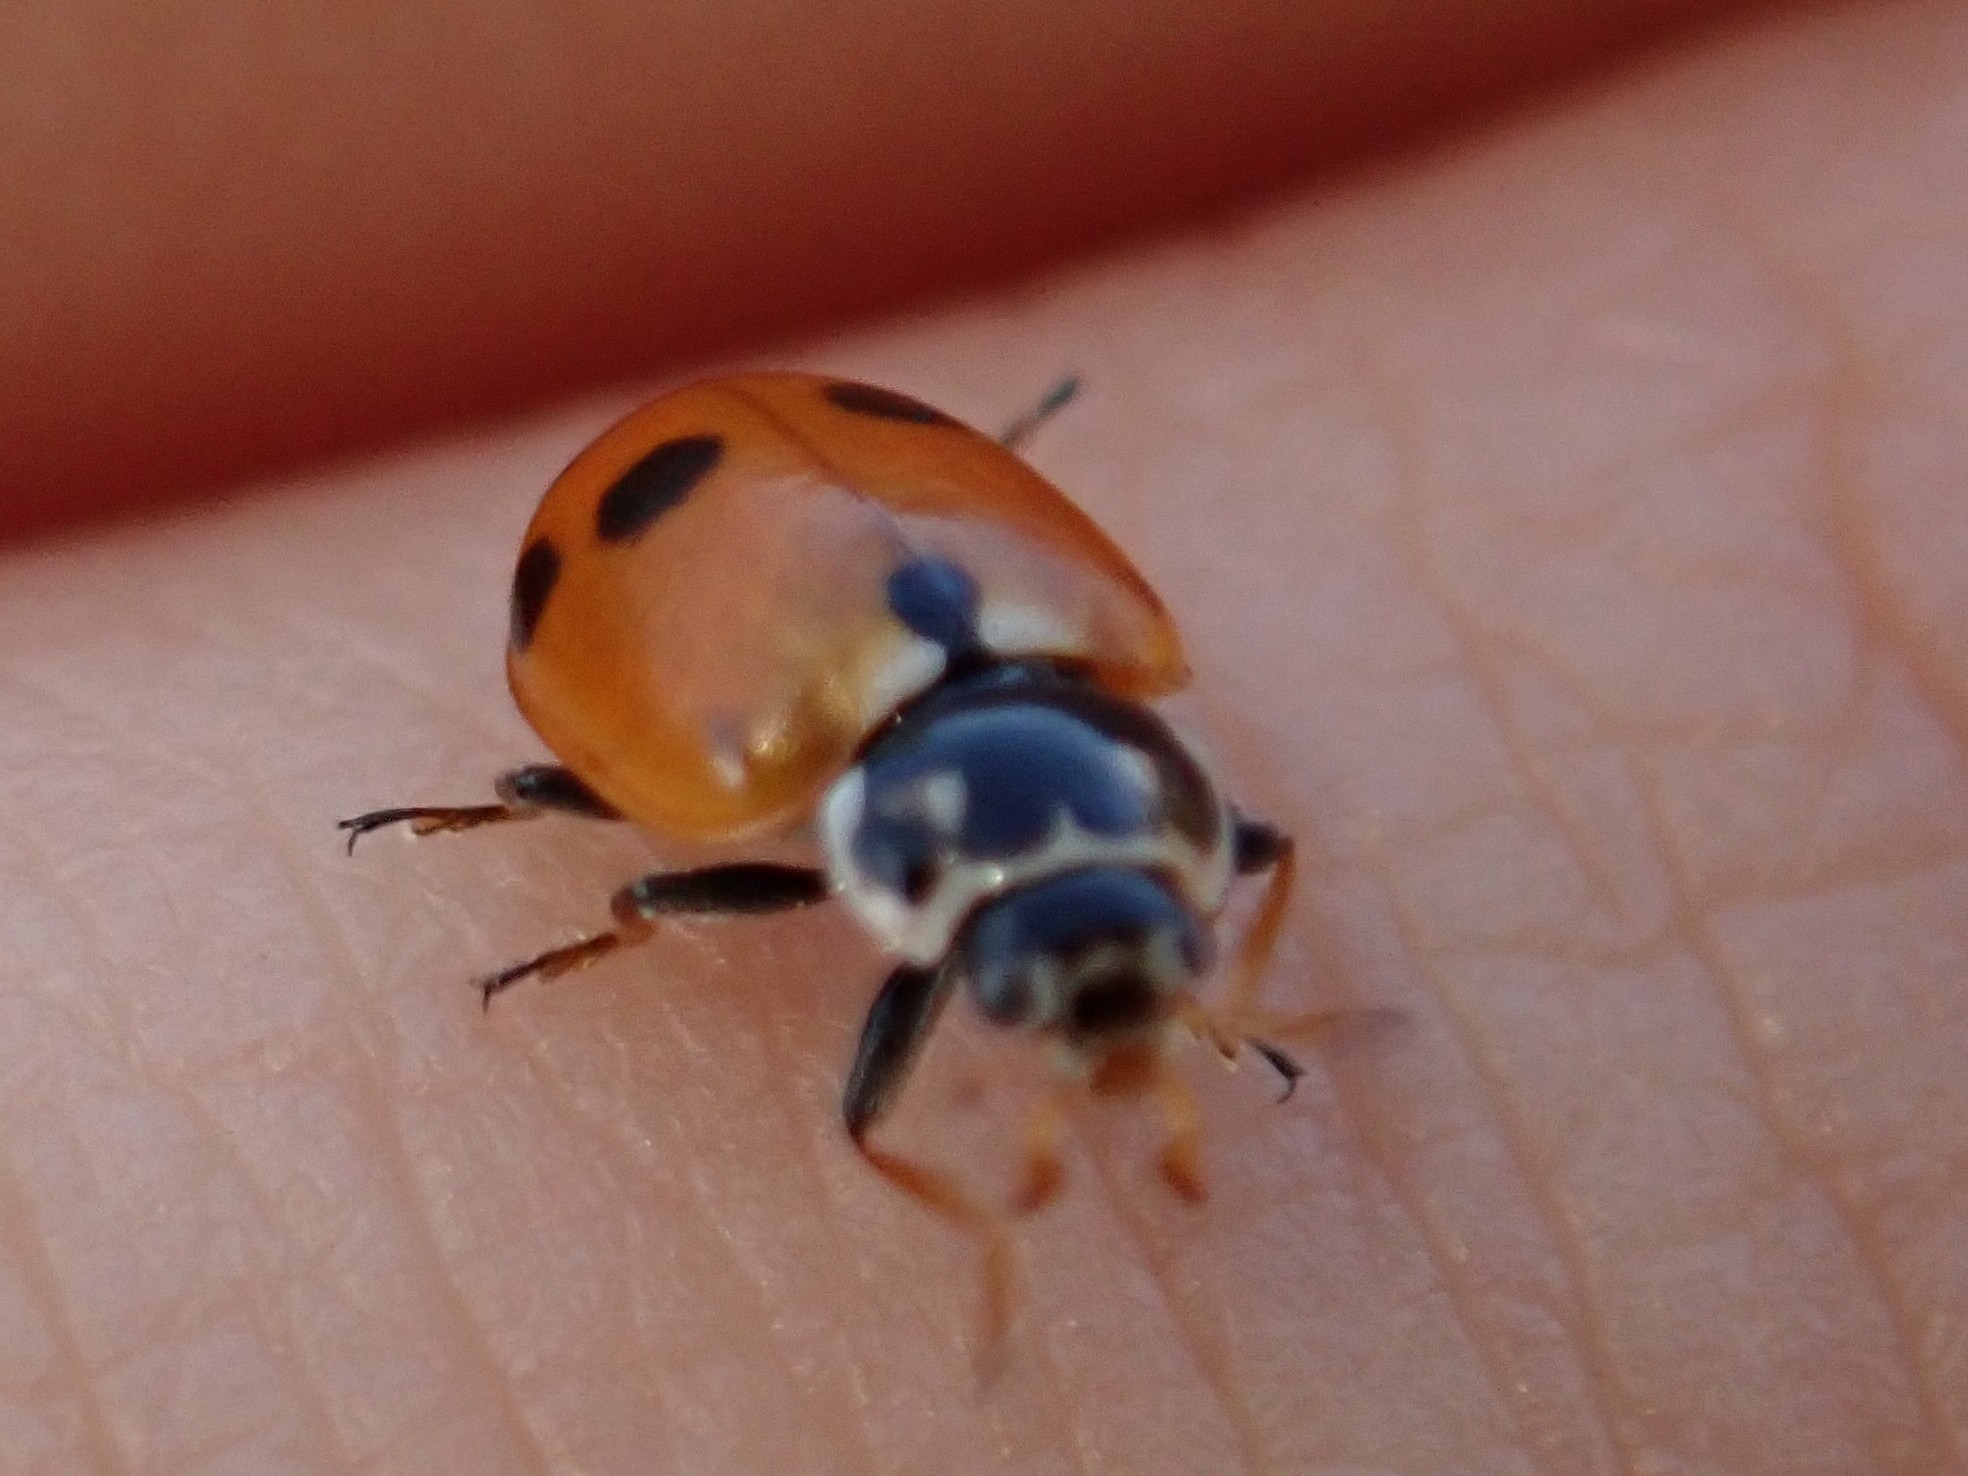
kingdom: Animalia
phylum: Arthropoda
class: Insecta
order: Coleoptera
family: Coccinellidae
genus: Hippodamia
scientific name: Hippodamia variegata
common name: Ladybird beetle
